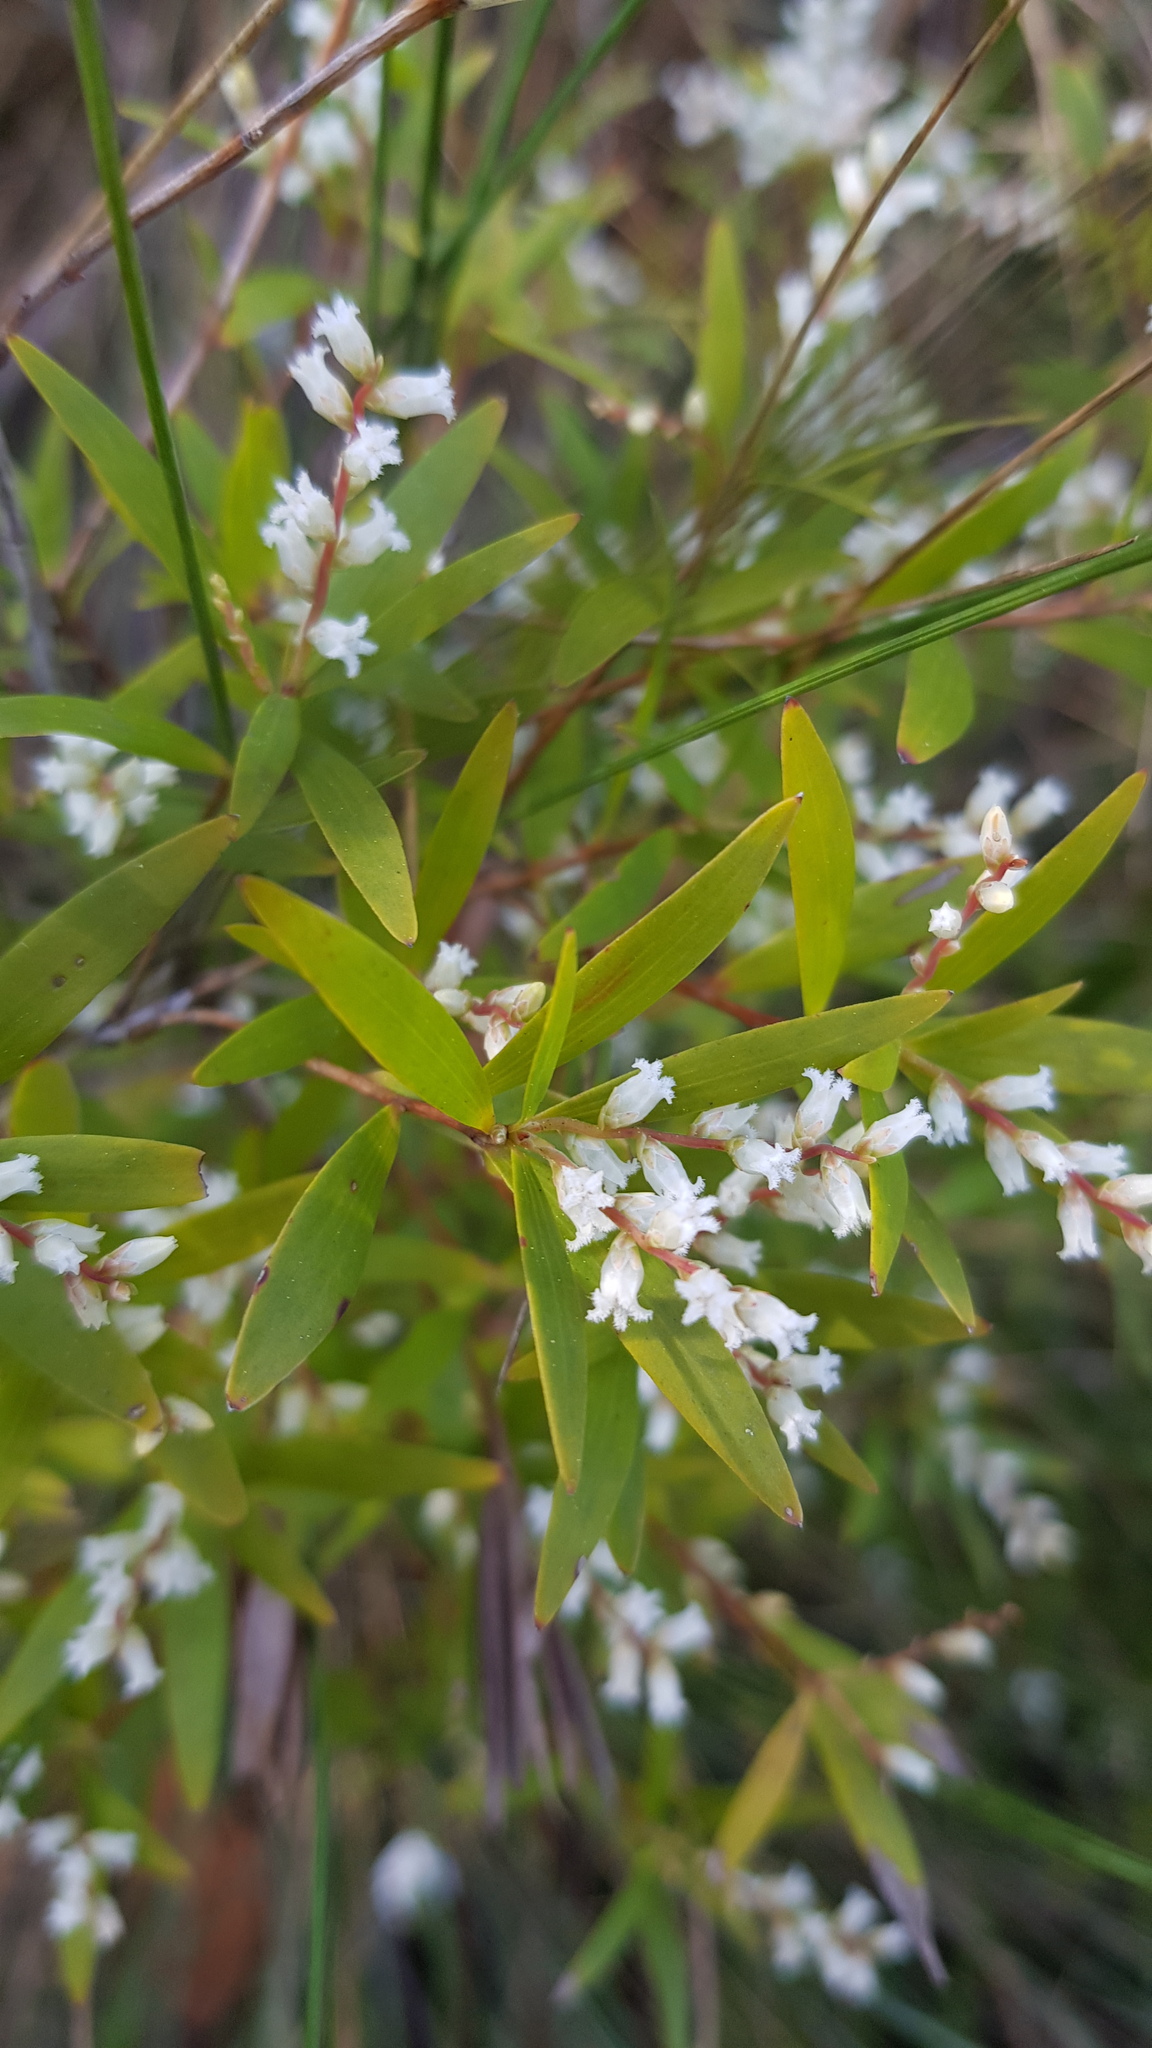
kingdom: Plantae
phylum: Tracheophyta
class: Magnoliopsida
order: Ericales
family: Ericaceae
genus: Leucopogon
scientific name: Leucopogon lanceolatus
